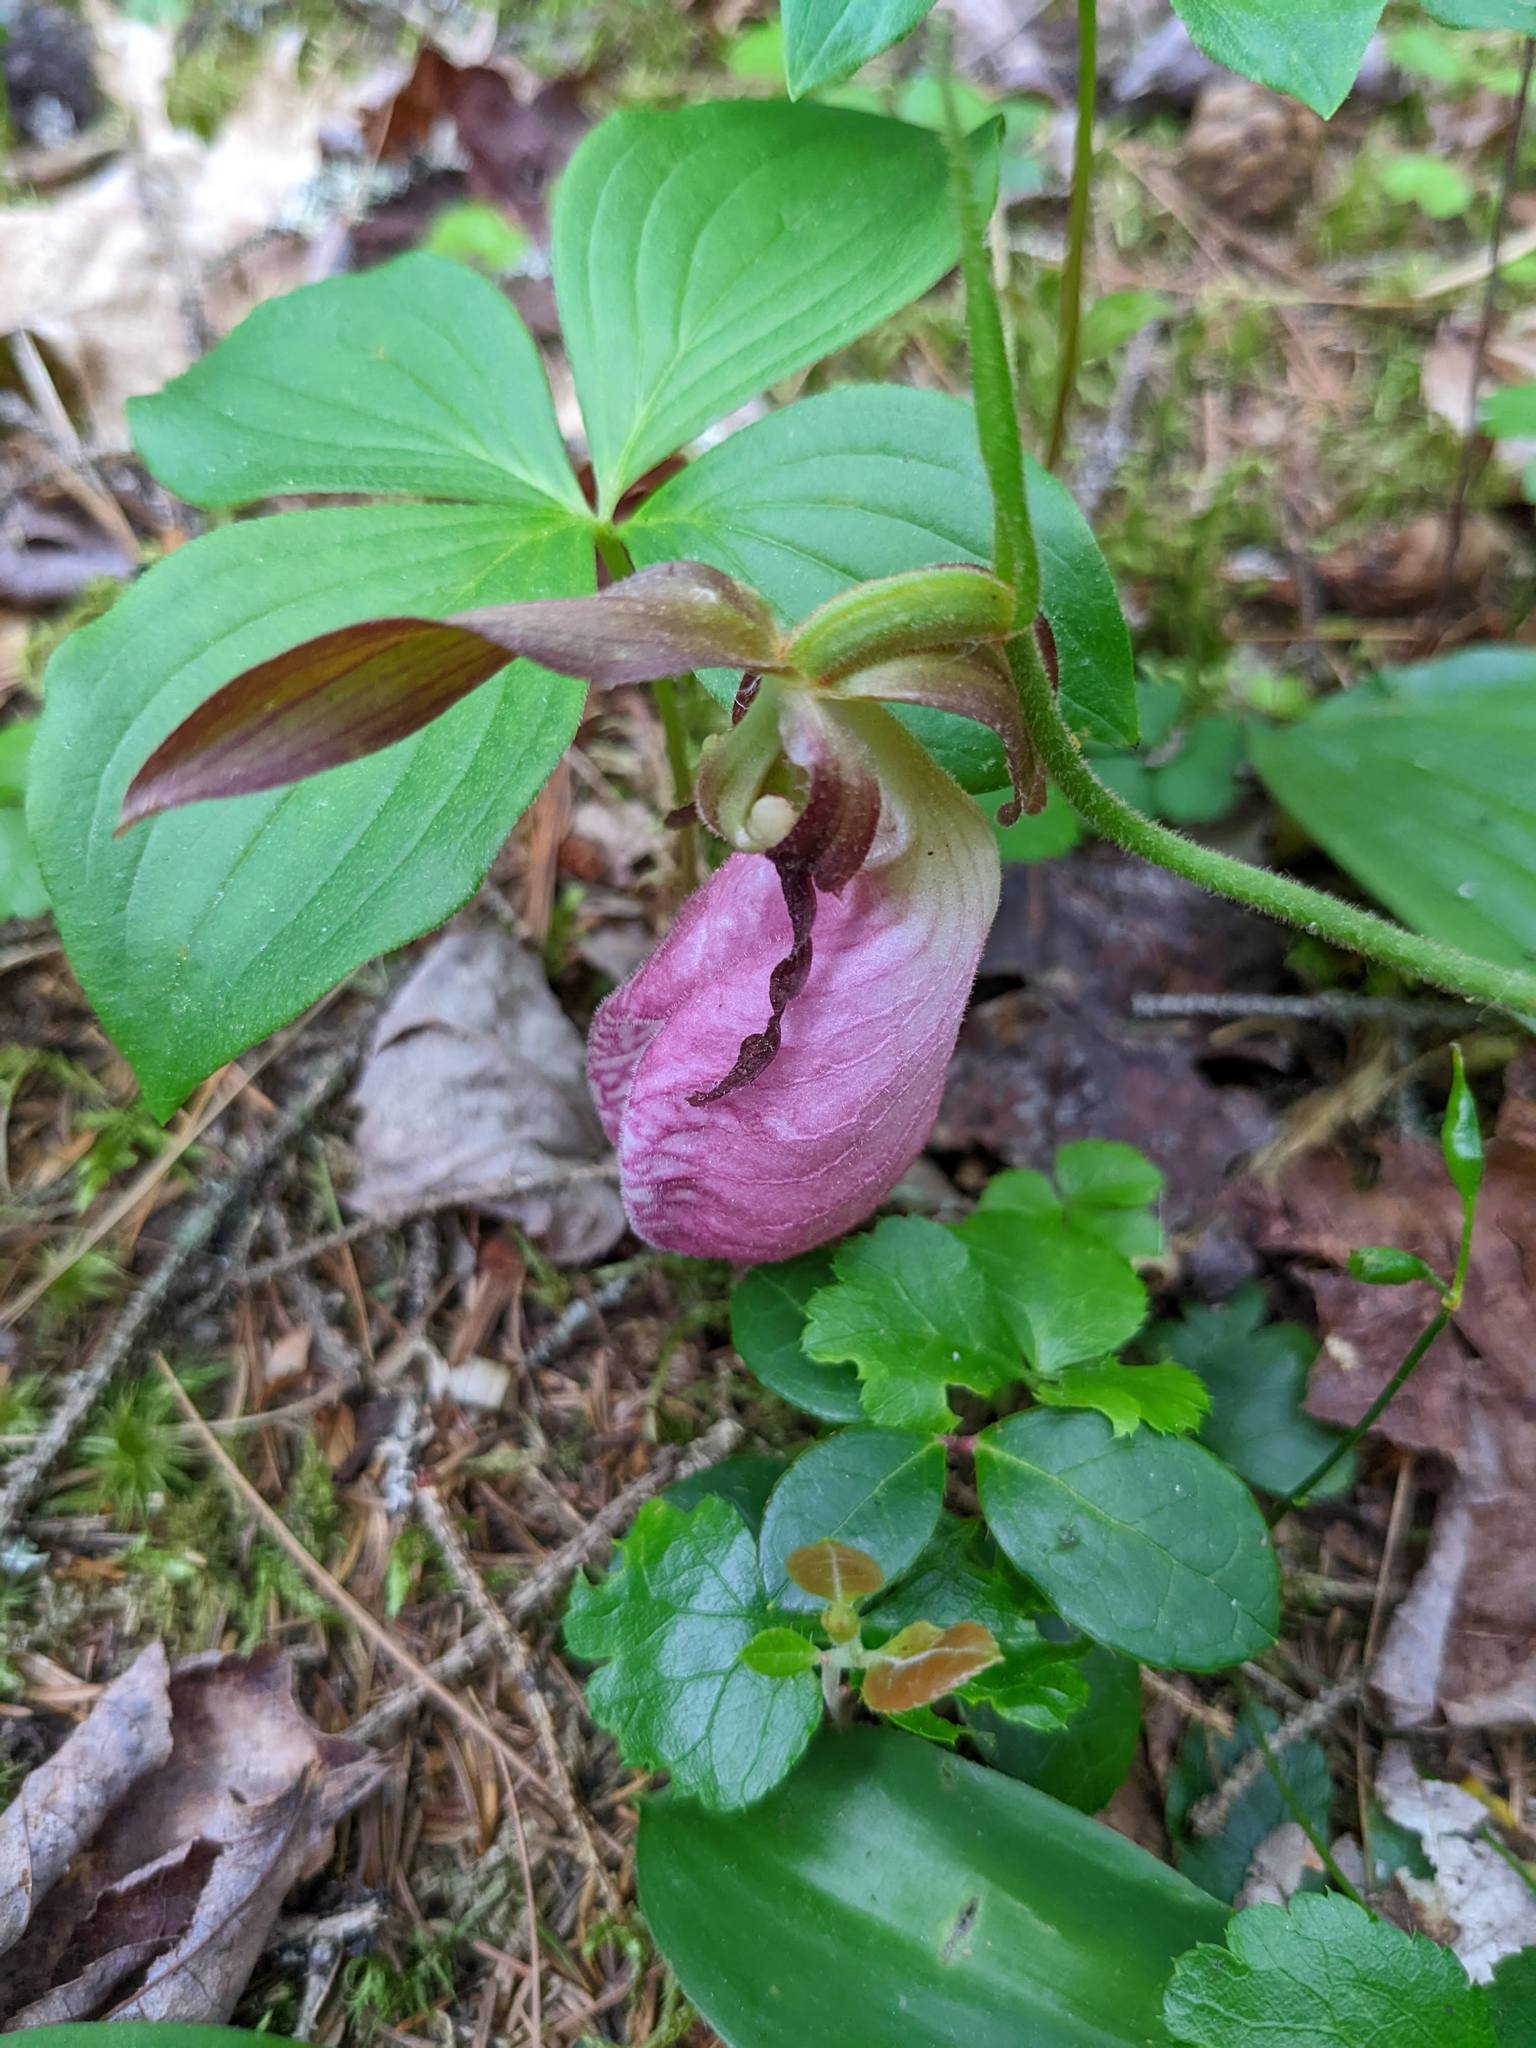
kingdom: Plantae
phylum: Tracheophyta
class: Liliopsida
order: Asparagales
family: Orchidaceae
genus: Cypripedium
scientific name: Cypripedium acaule
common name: Pink lady's-slipper
